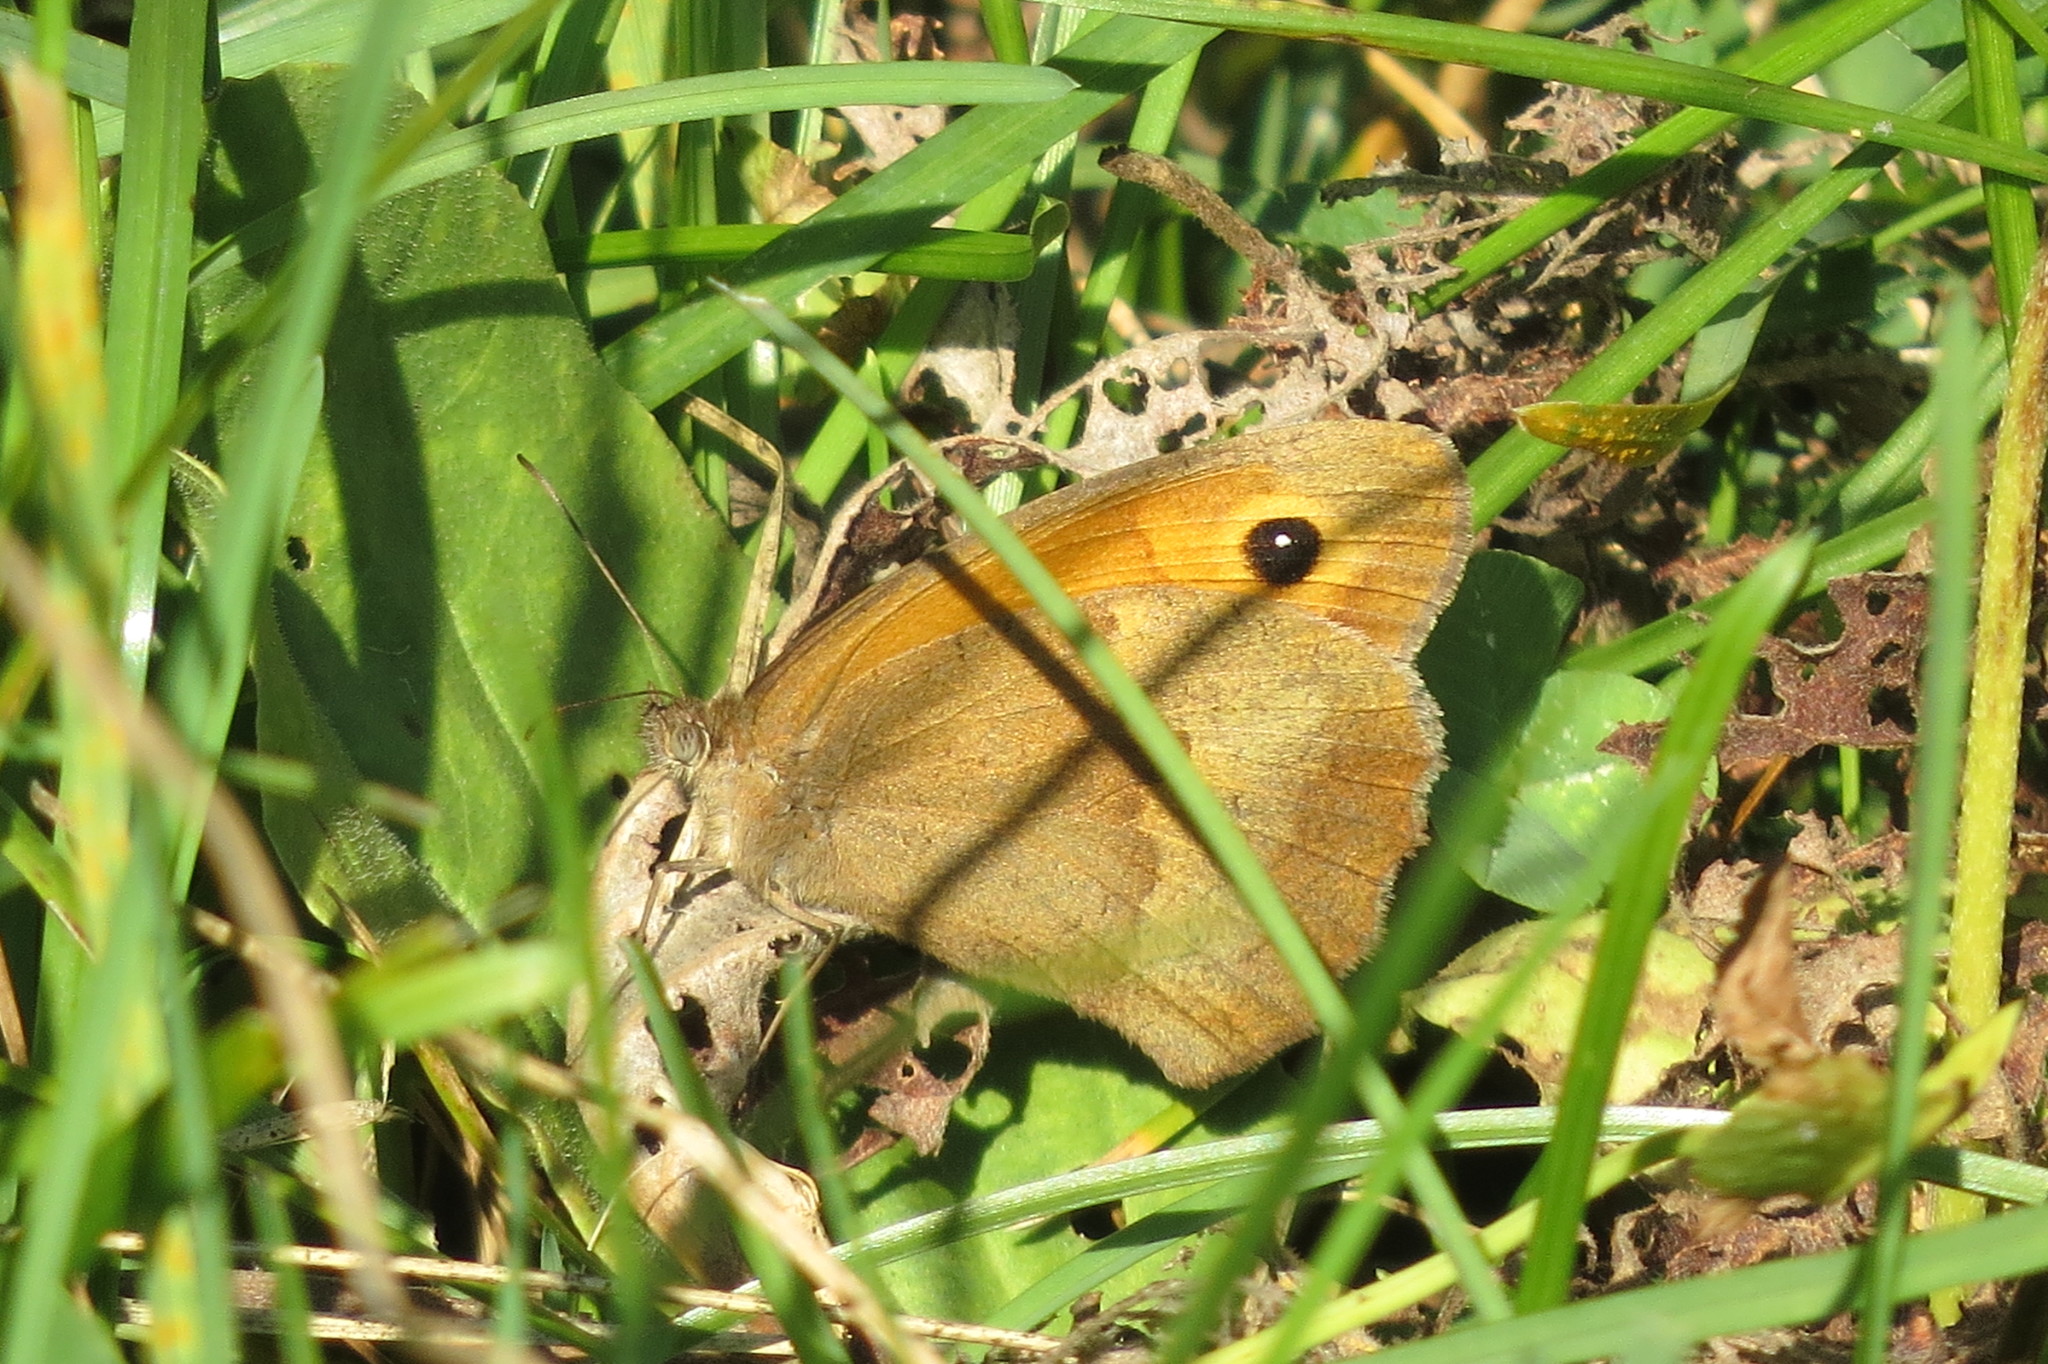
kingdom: Animalia
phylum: Arthropoda
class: Insecta
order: Lepidoptera
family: Nymphalidae
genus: Maniola
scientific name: Maniola jurtina
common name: Meadow brown
